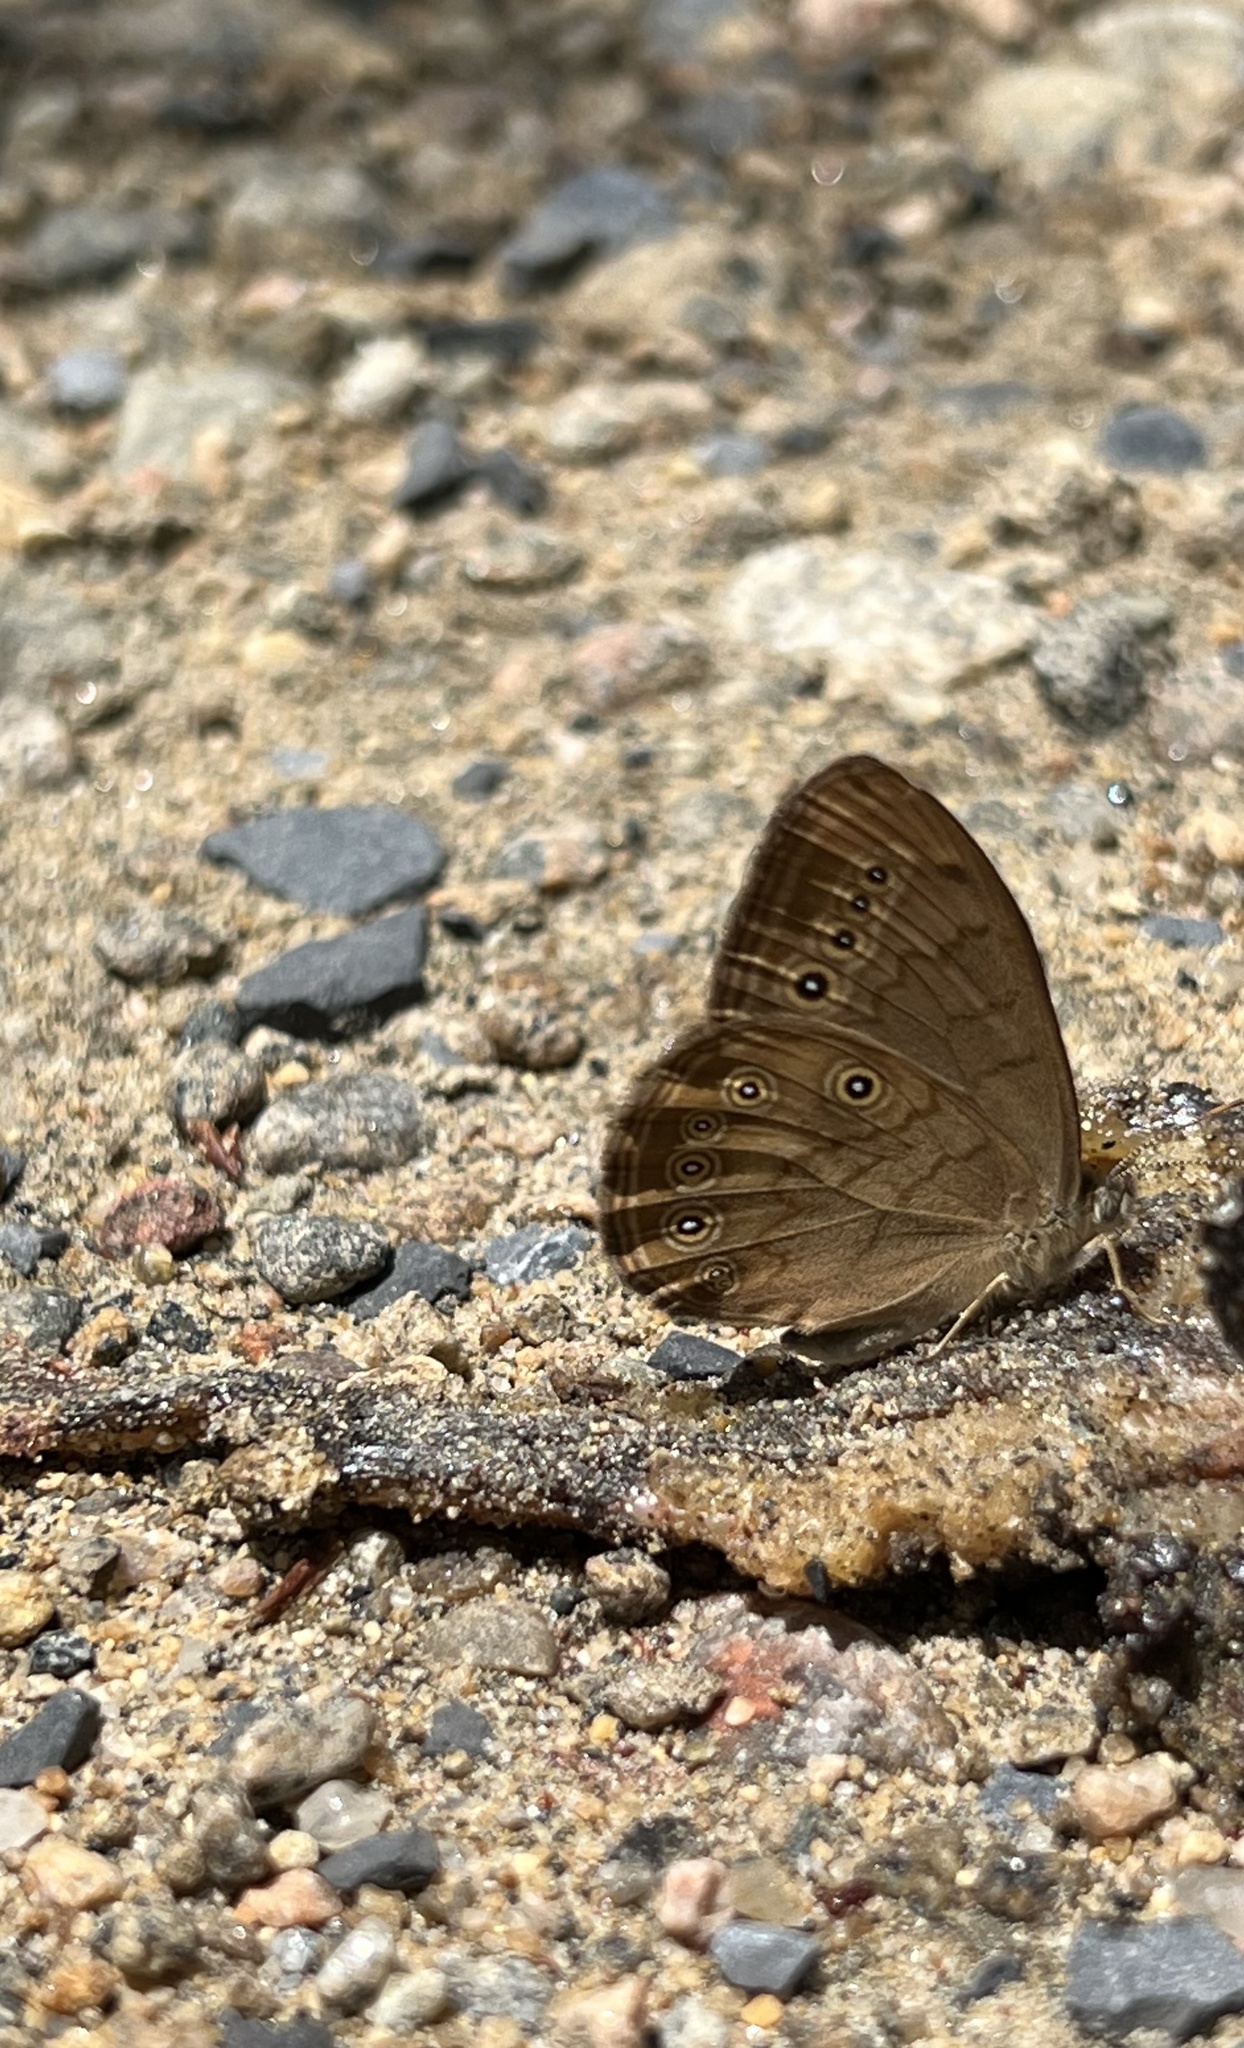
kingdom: Animalia
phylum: Arthropoda
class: Insecta
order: Lepidoptera
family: Nymphalidae
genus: Lethe
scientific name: Lethe eurydice
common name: Eyed brown
